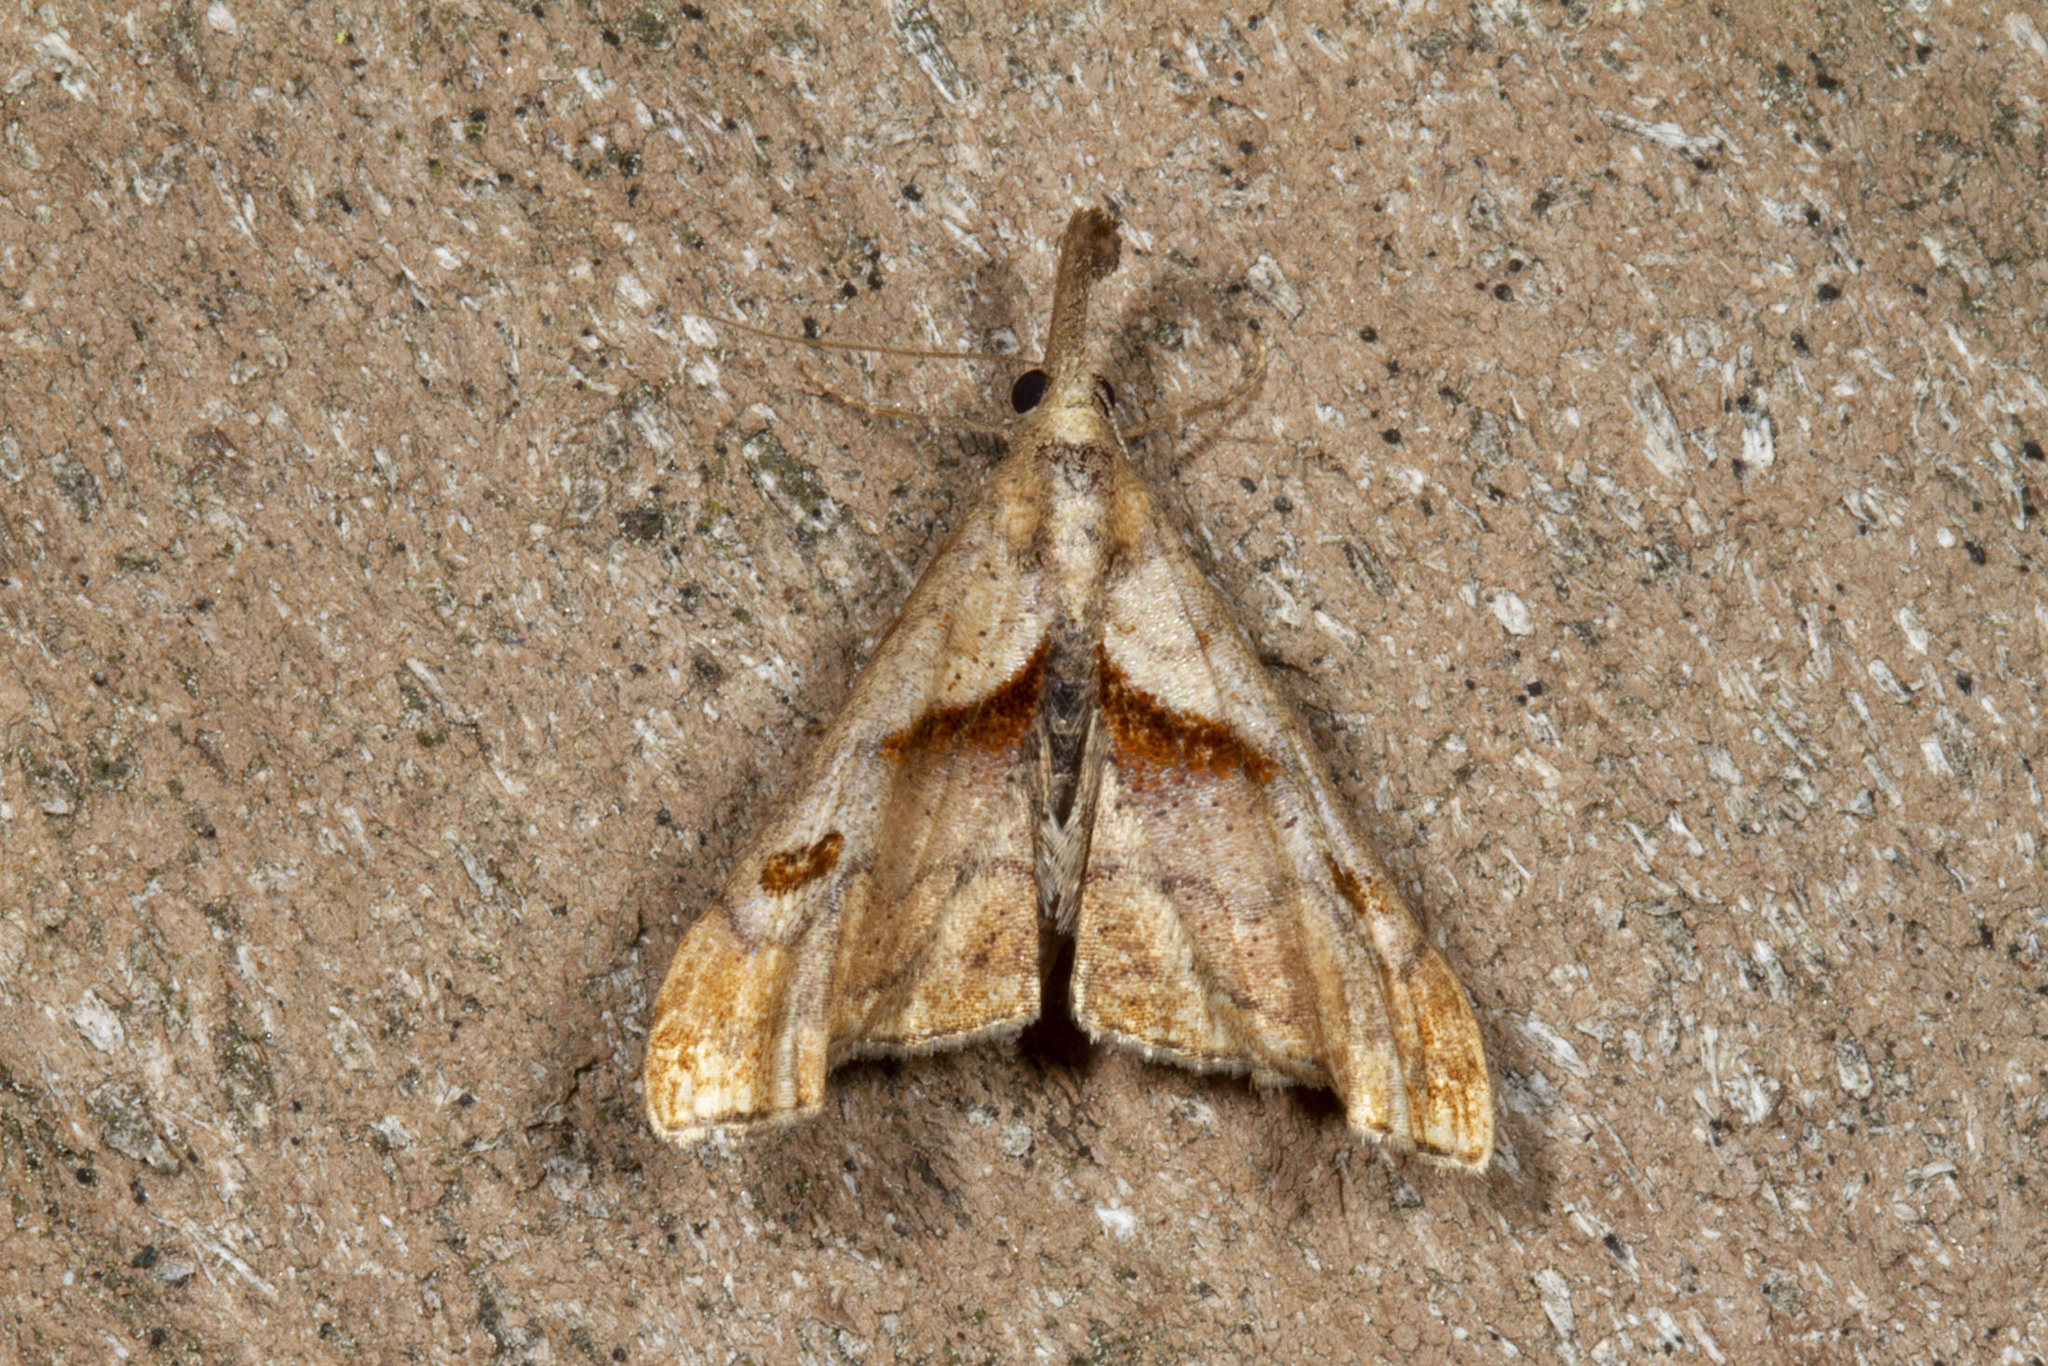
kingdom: Animalia
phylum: Arthropoda
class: Insecta
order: Lepidoptera
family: Erebidae
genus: Palthis
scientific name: Palthis angulalis
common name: Dark-spotted palthis moth
